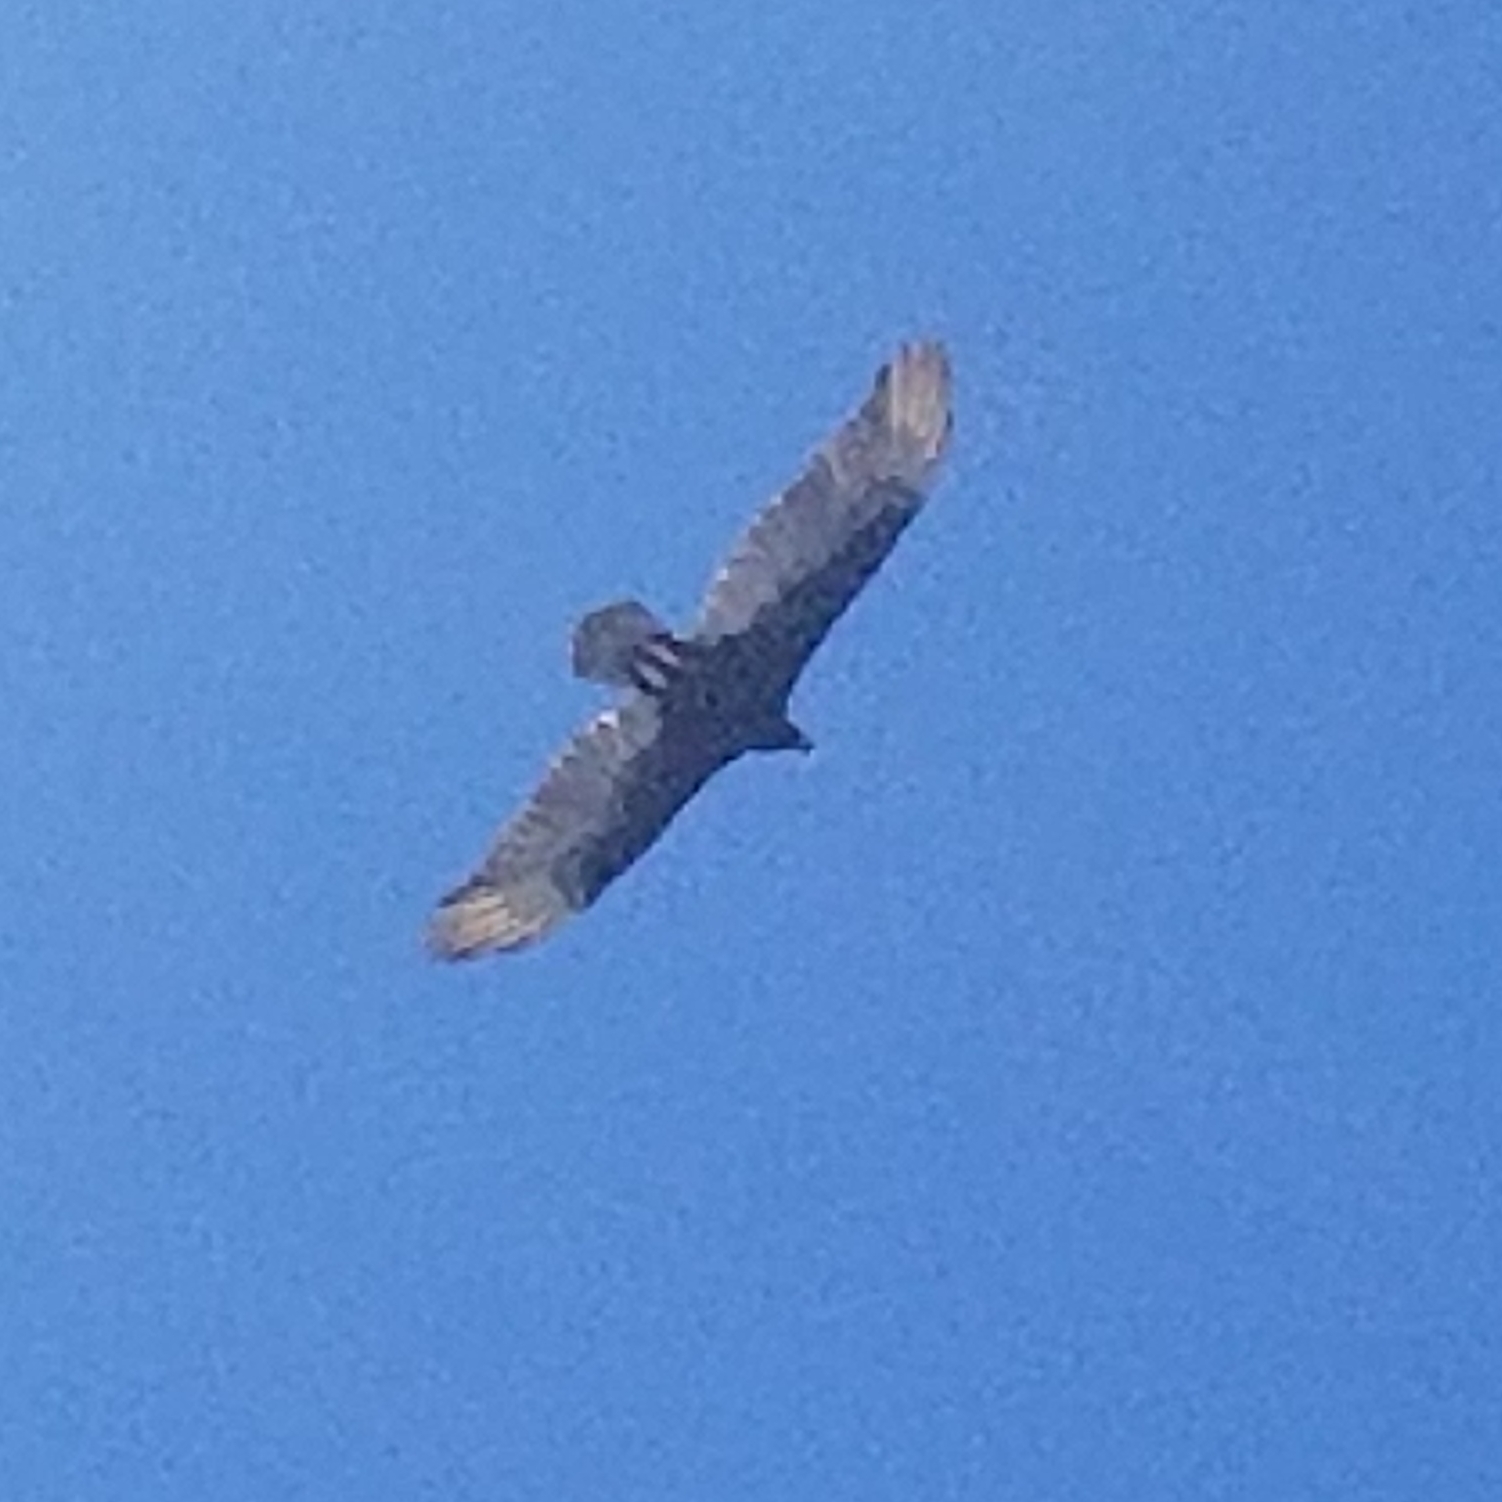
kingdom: Animalia
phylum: Chordata
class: Aves
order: Accipitriformes
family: Cathartidae
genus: Cathartes
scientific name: Cathartes aura
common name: Turkey vulture
